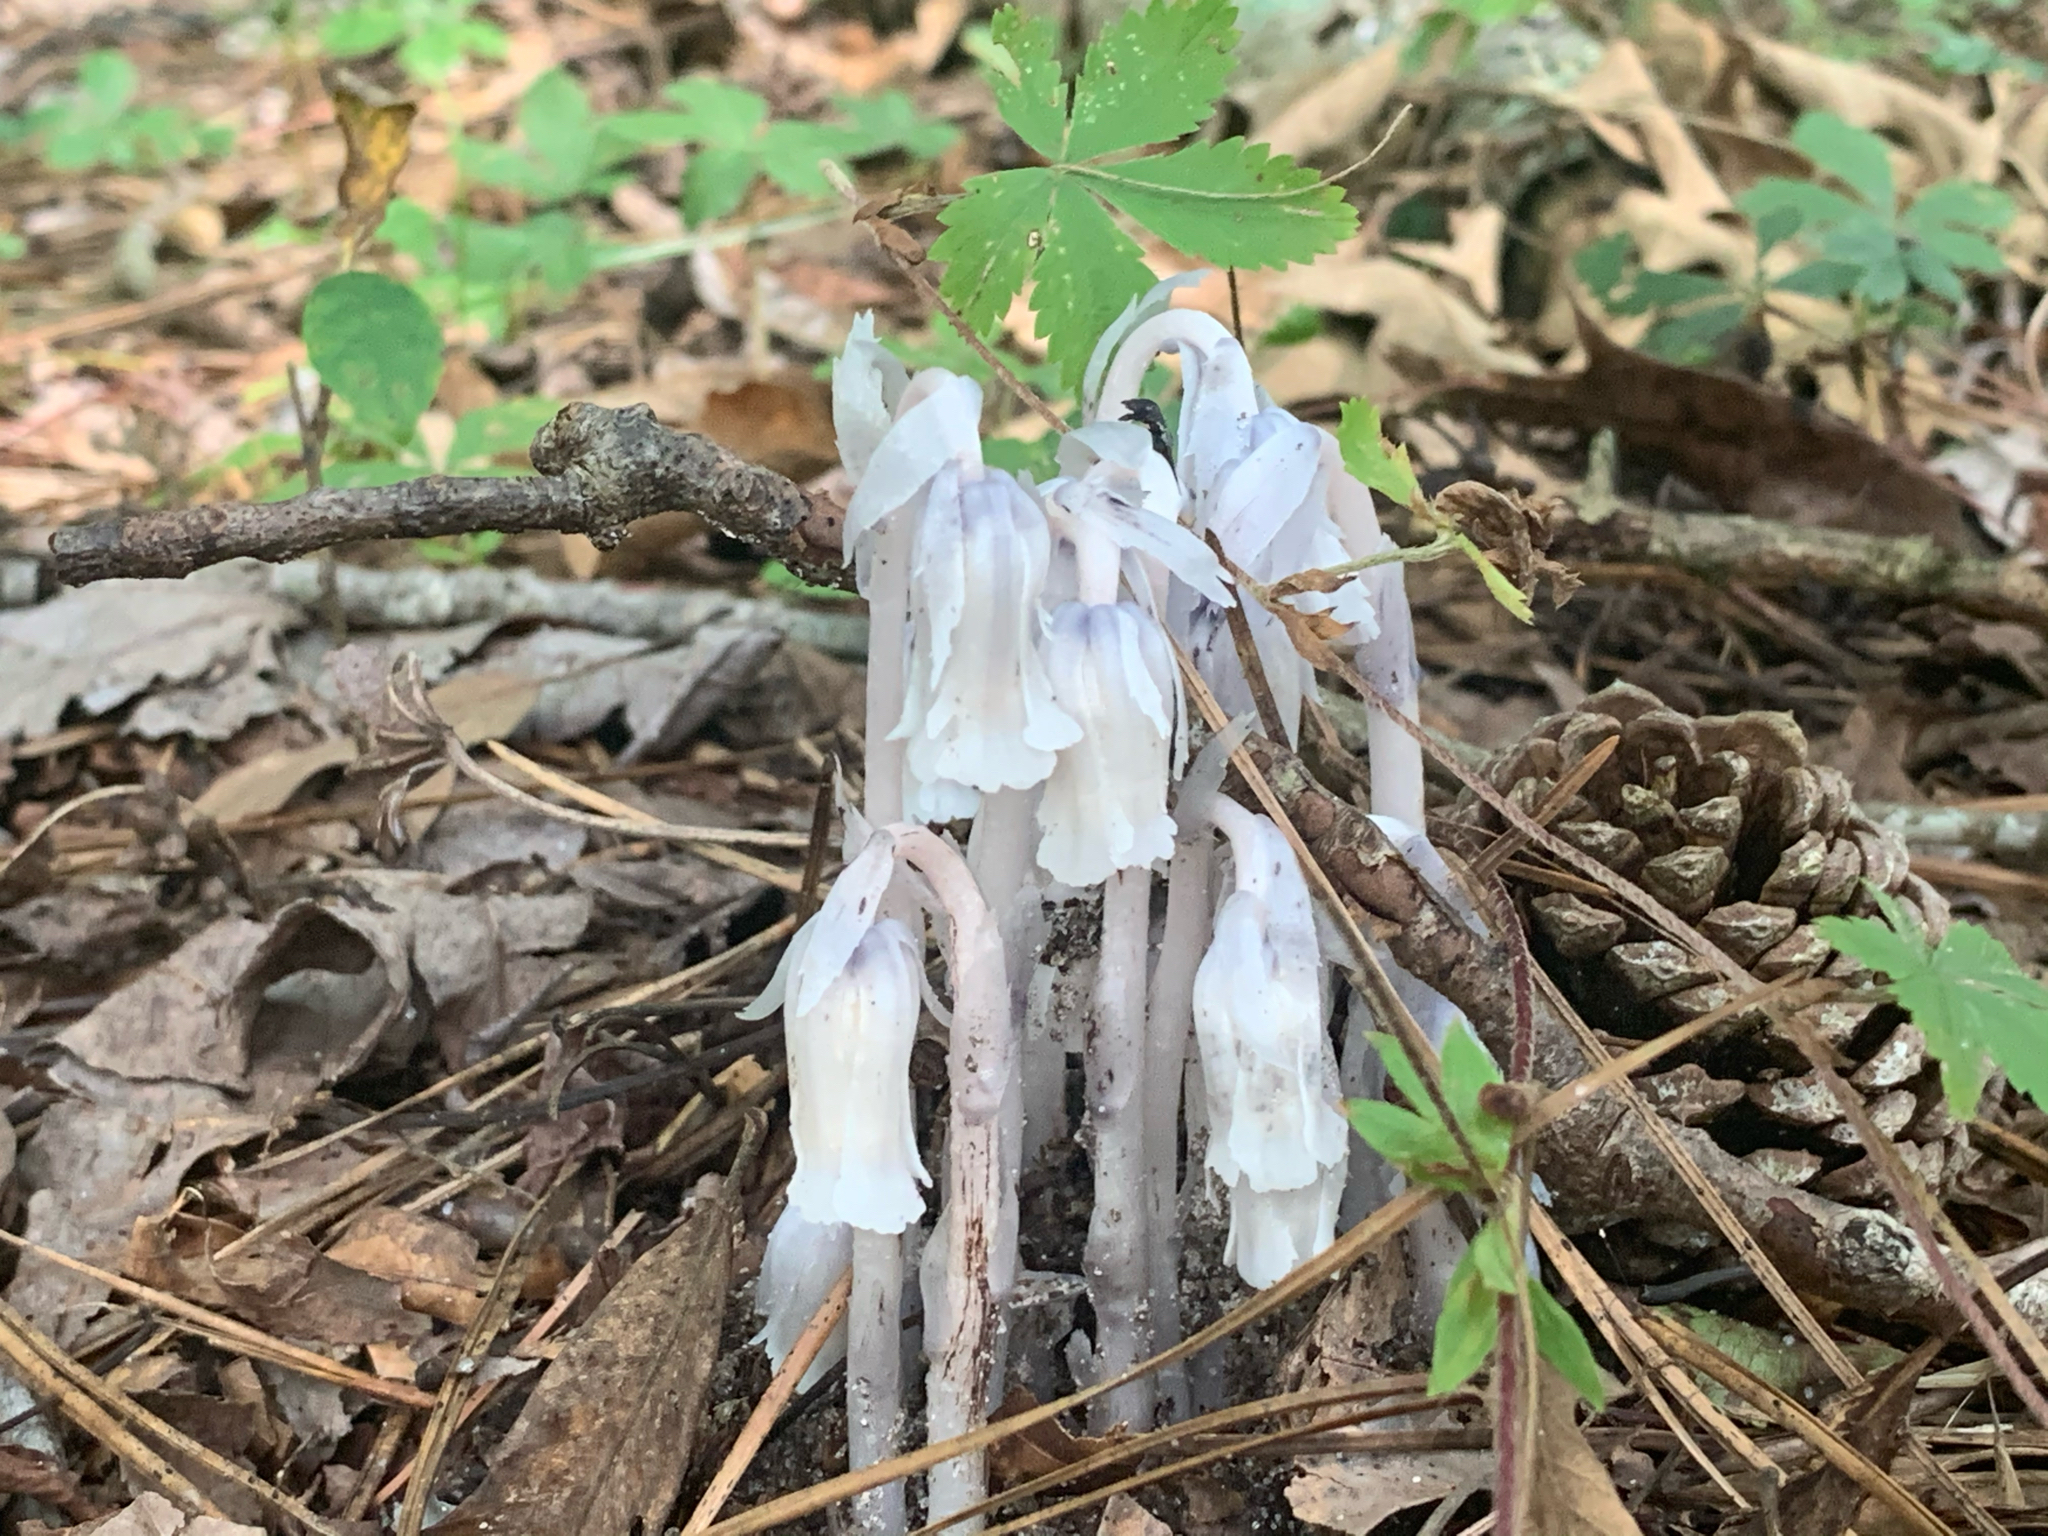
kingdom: Plantae
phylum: Tracheophyta
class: Magnoliopsida
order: Ericales
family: Ericaceae
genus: Monotropa
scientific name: Monotropa uniflora
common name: Convulsion root
